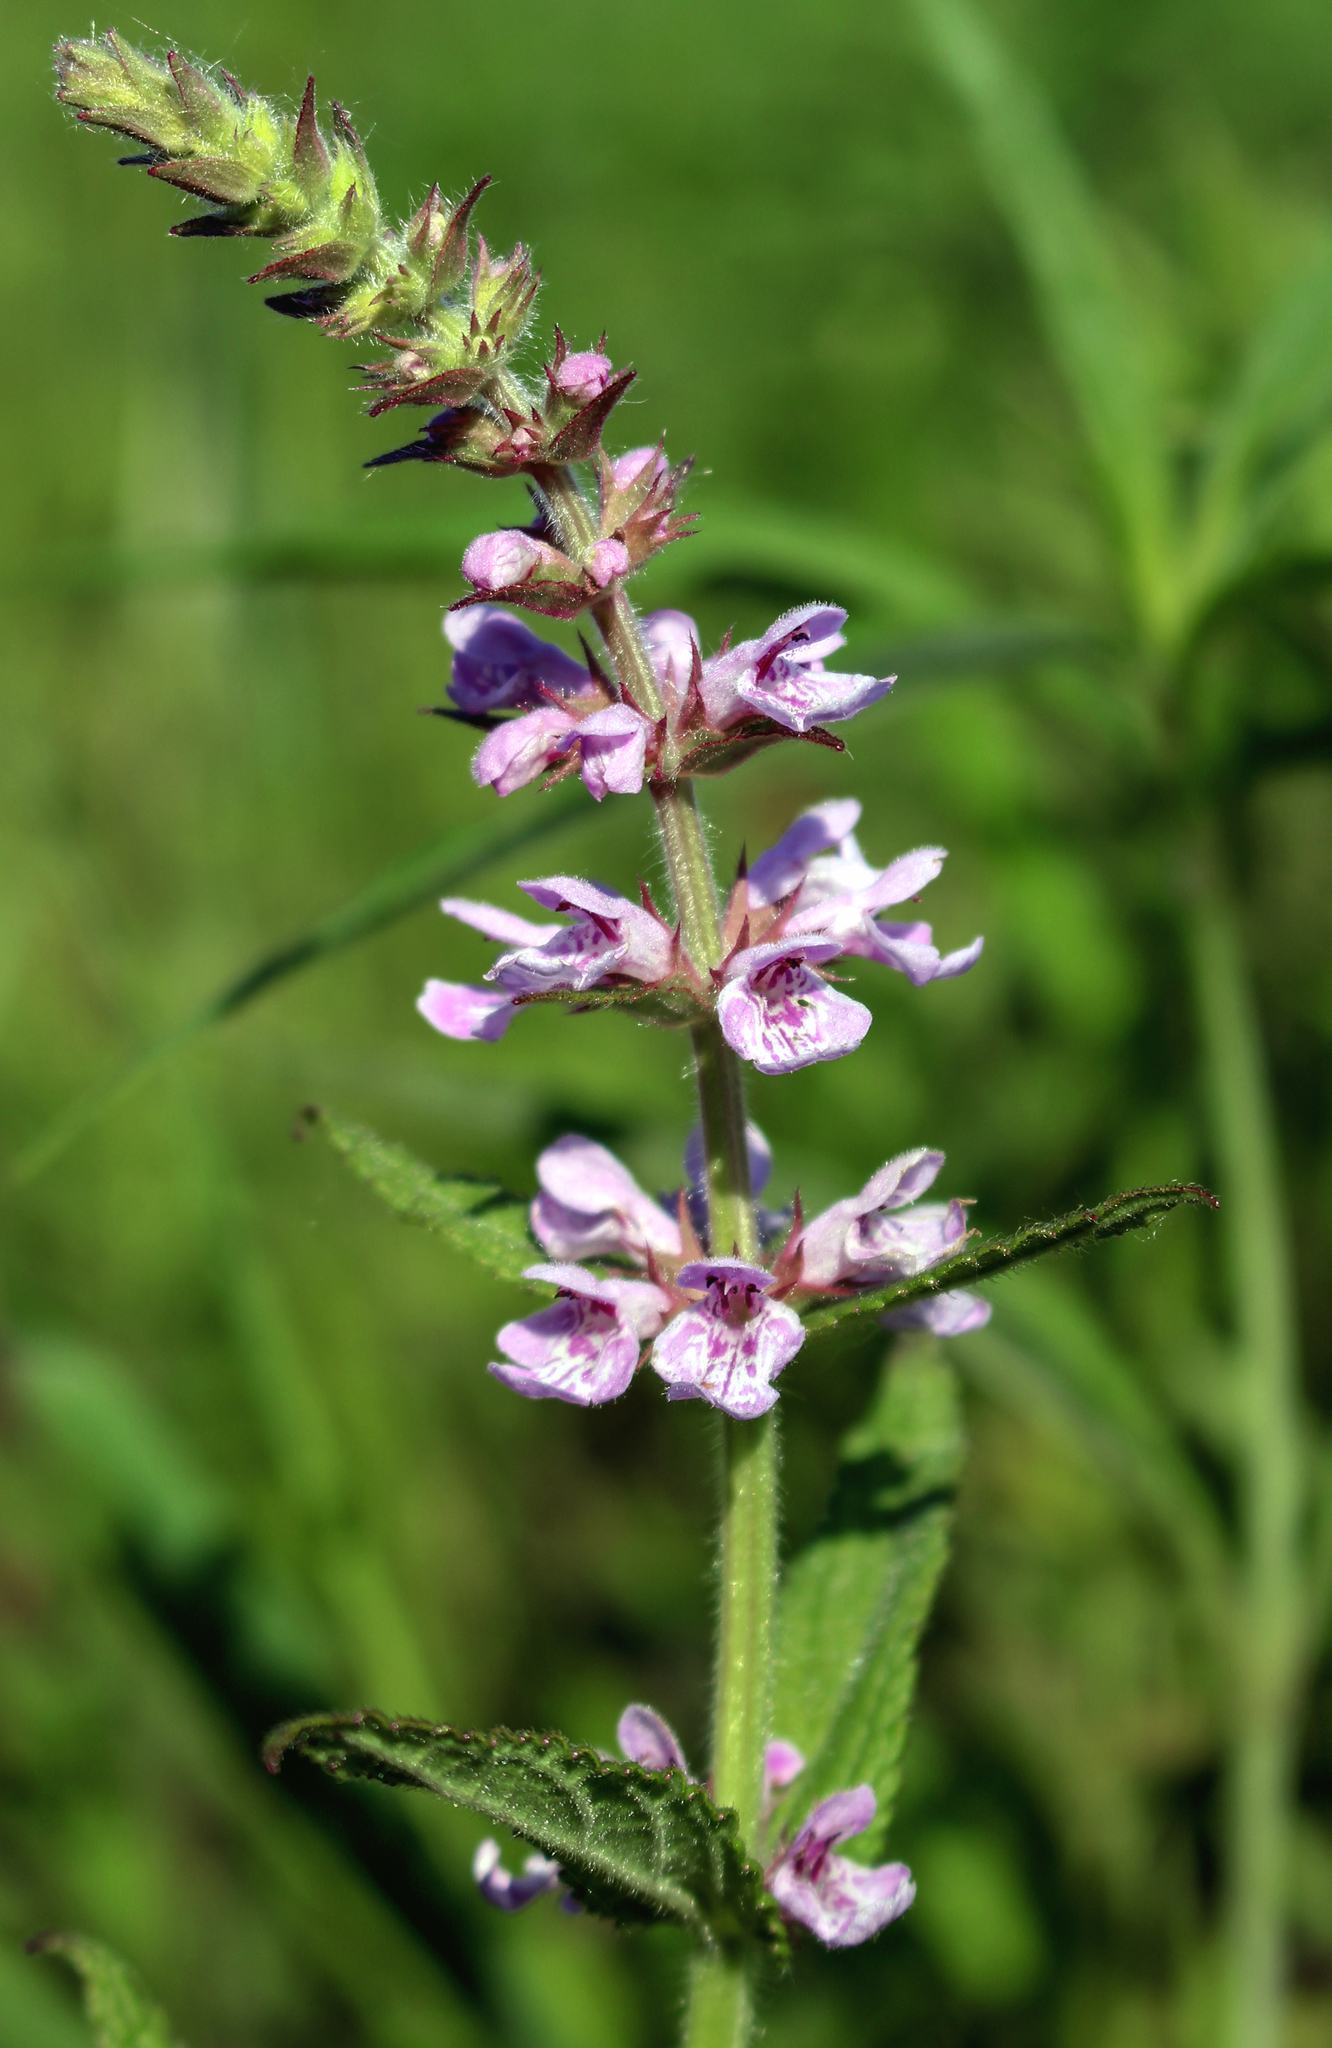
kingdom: Plantae
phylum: Tracheophyta
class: Magnoliopsida
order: Lamiales
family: Lamiaceae
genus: Stachys
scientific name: Stachys palustris
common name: Marsh woundwort
